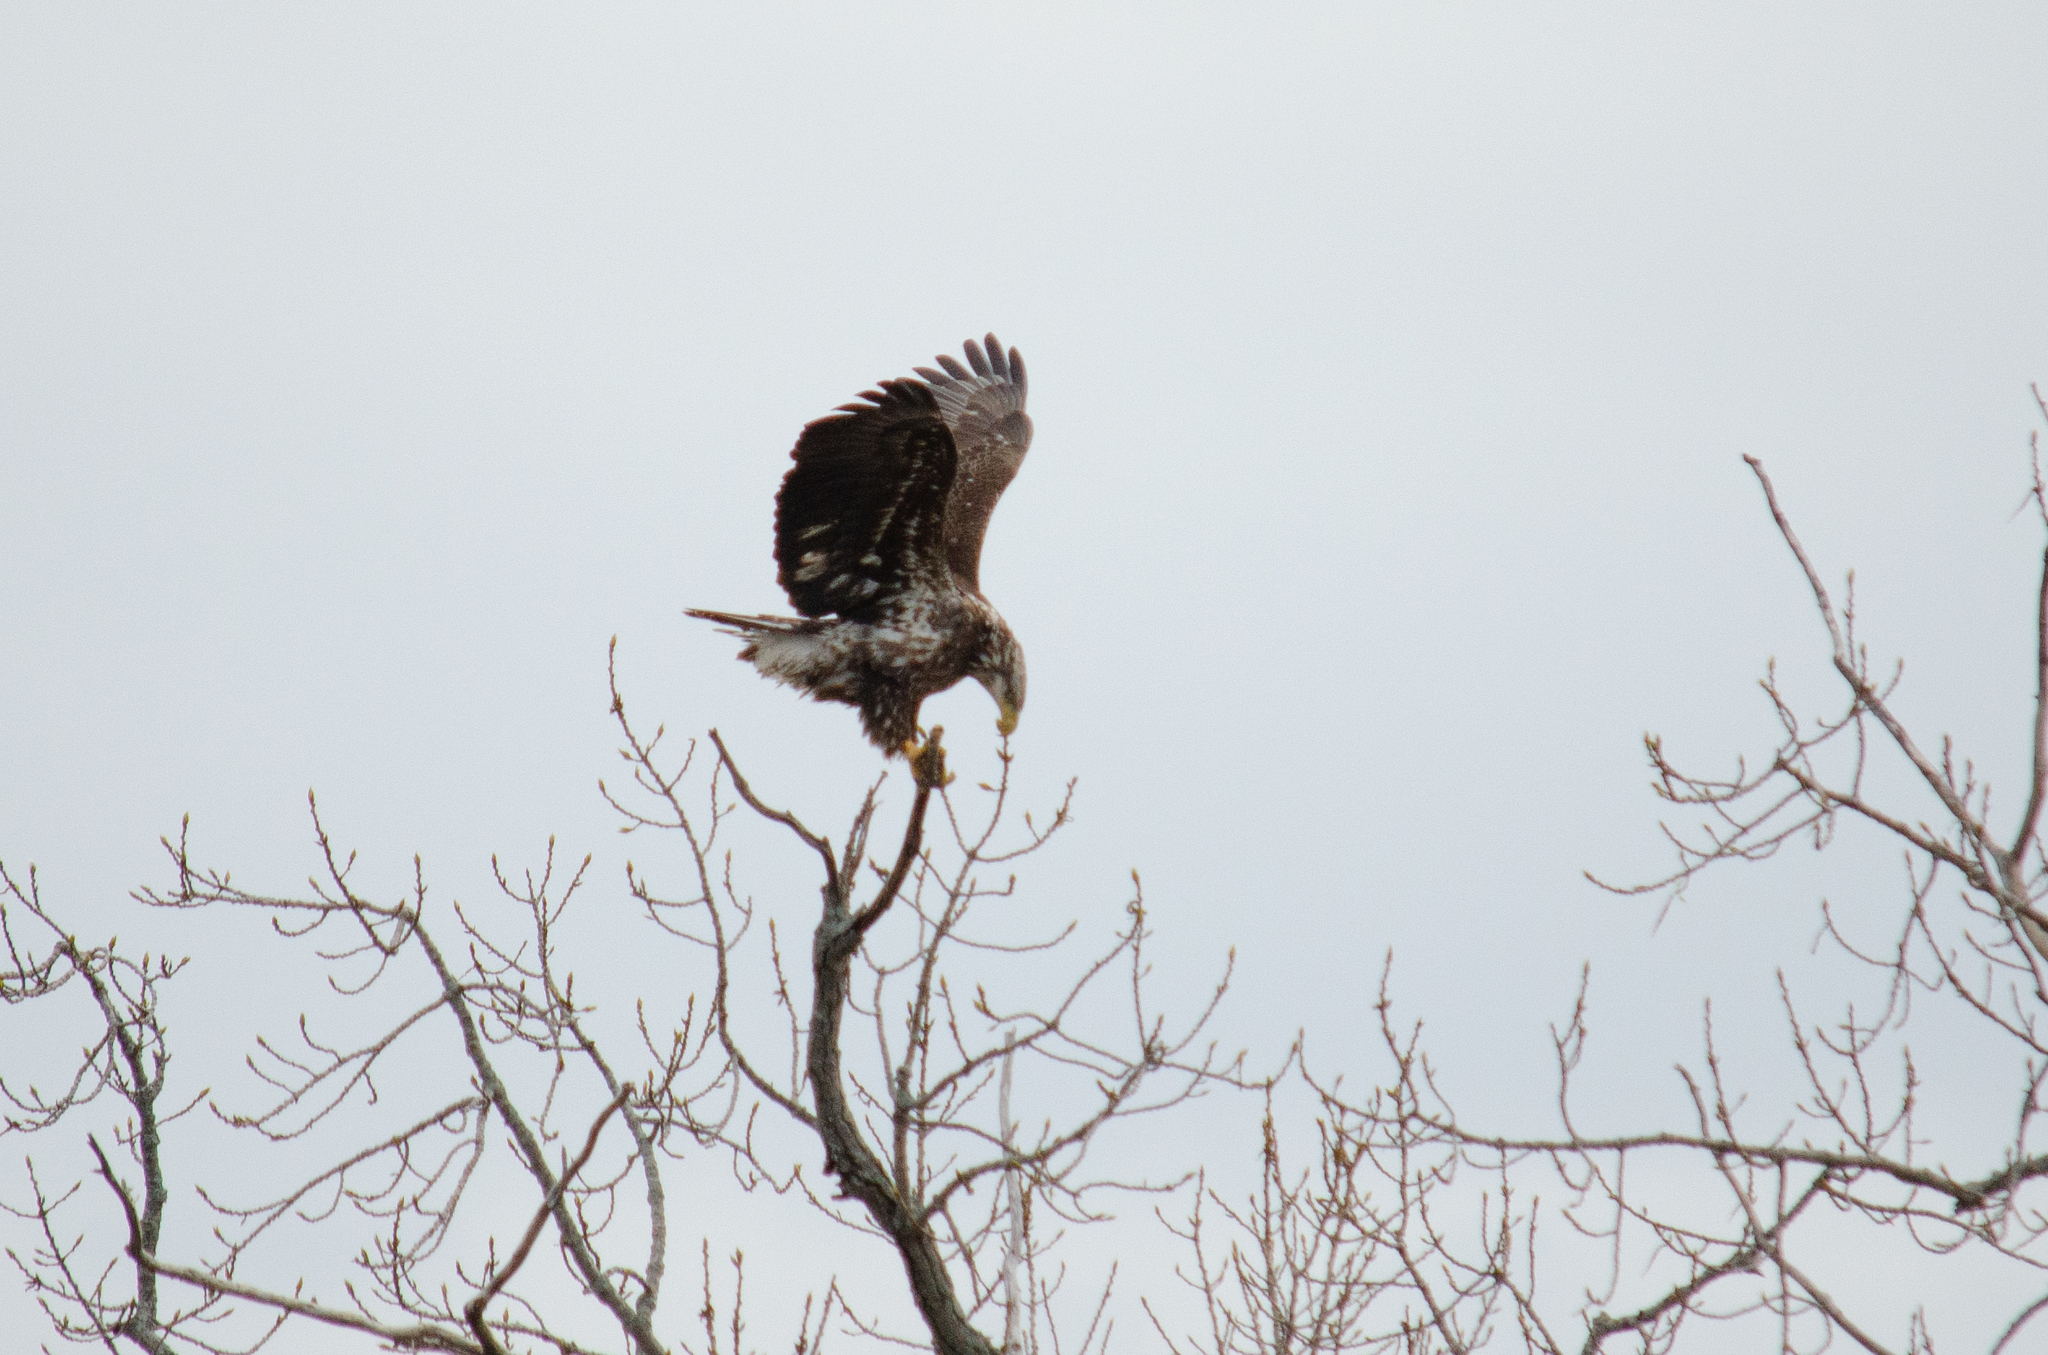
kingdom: Animalia
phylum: Chordata
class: Aves
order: Accipitriformes
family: Accipitridae
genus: Haliaeetus
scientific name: Haliaeetus leucocephalus
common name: Bald eagle
